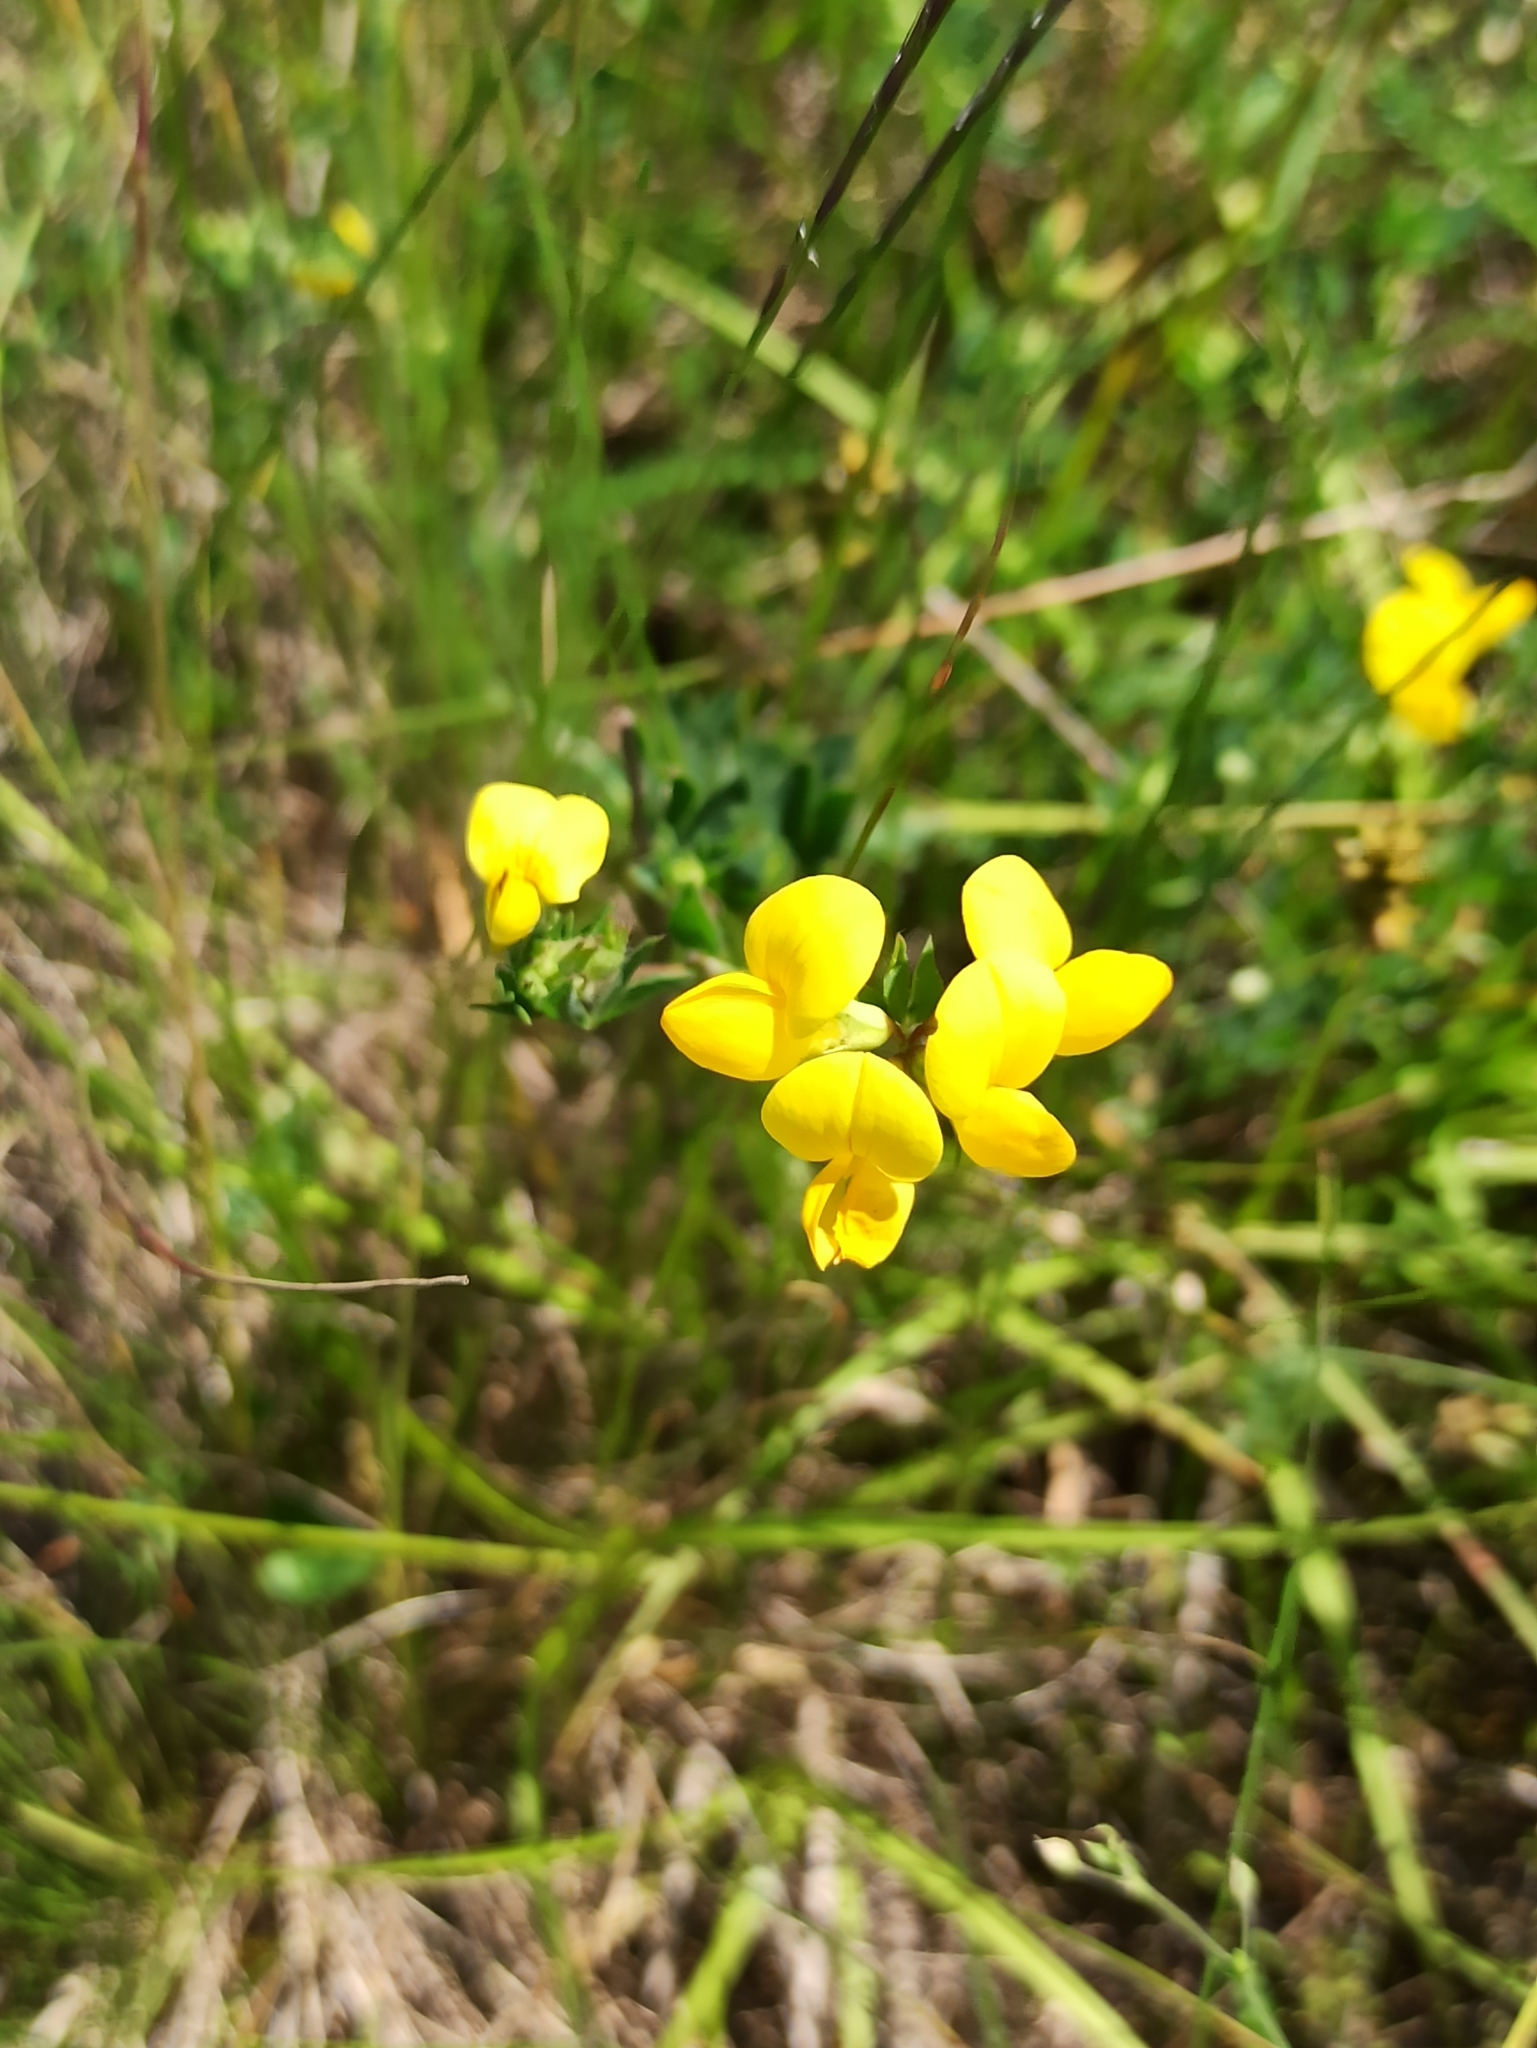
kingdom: Plantae
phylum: Tracheophyta
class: Magnoliopsida
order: Fabales
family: Fabaceae
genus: Lotus
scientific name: Lotus corniculatus
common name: Common bird's-foot-trefoil
